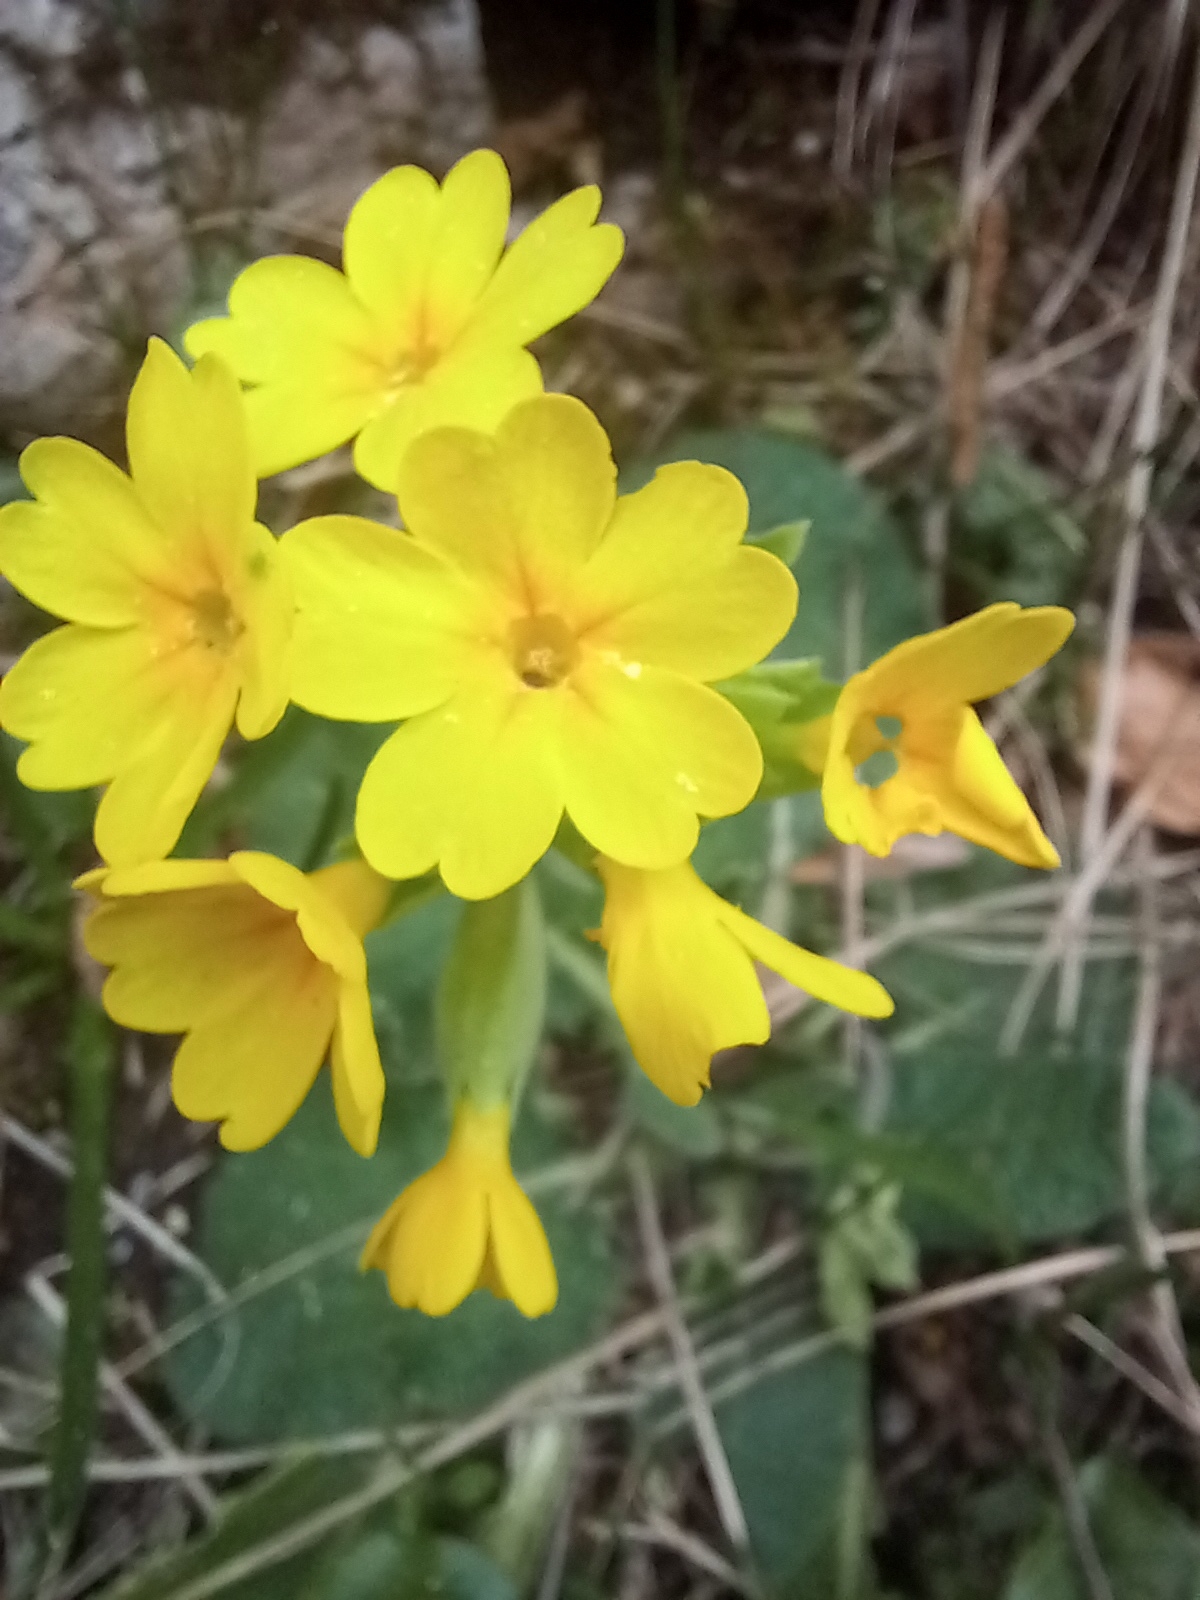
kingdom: Plantae
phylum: Tracheophyta
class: Magnoliopsida
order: Ericales
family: Primulaceae
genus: Primula
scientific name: Primula veris
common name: Cowslip
